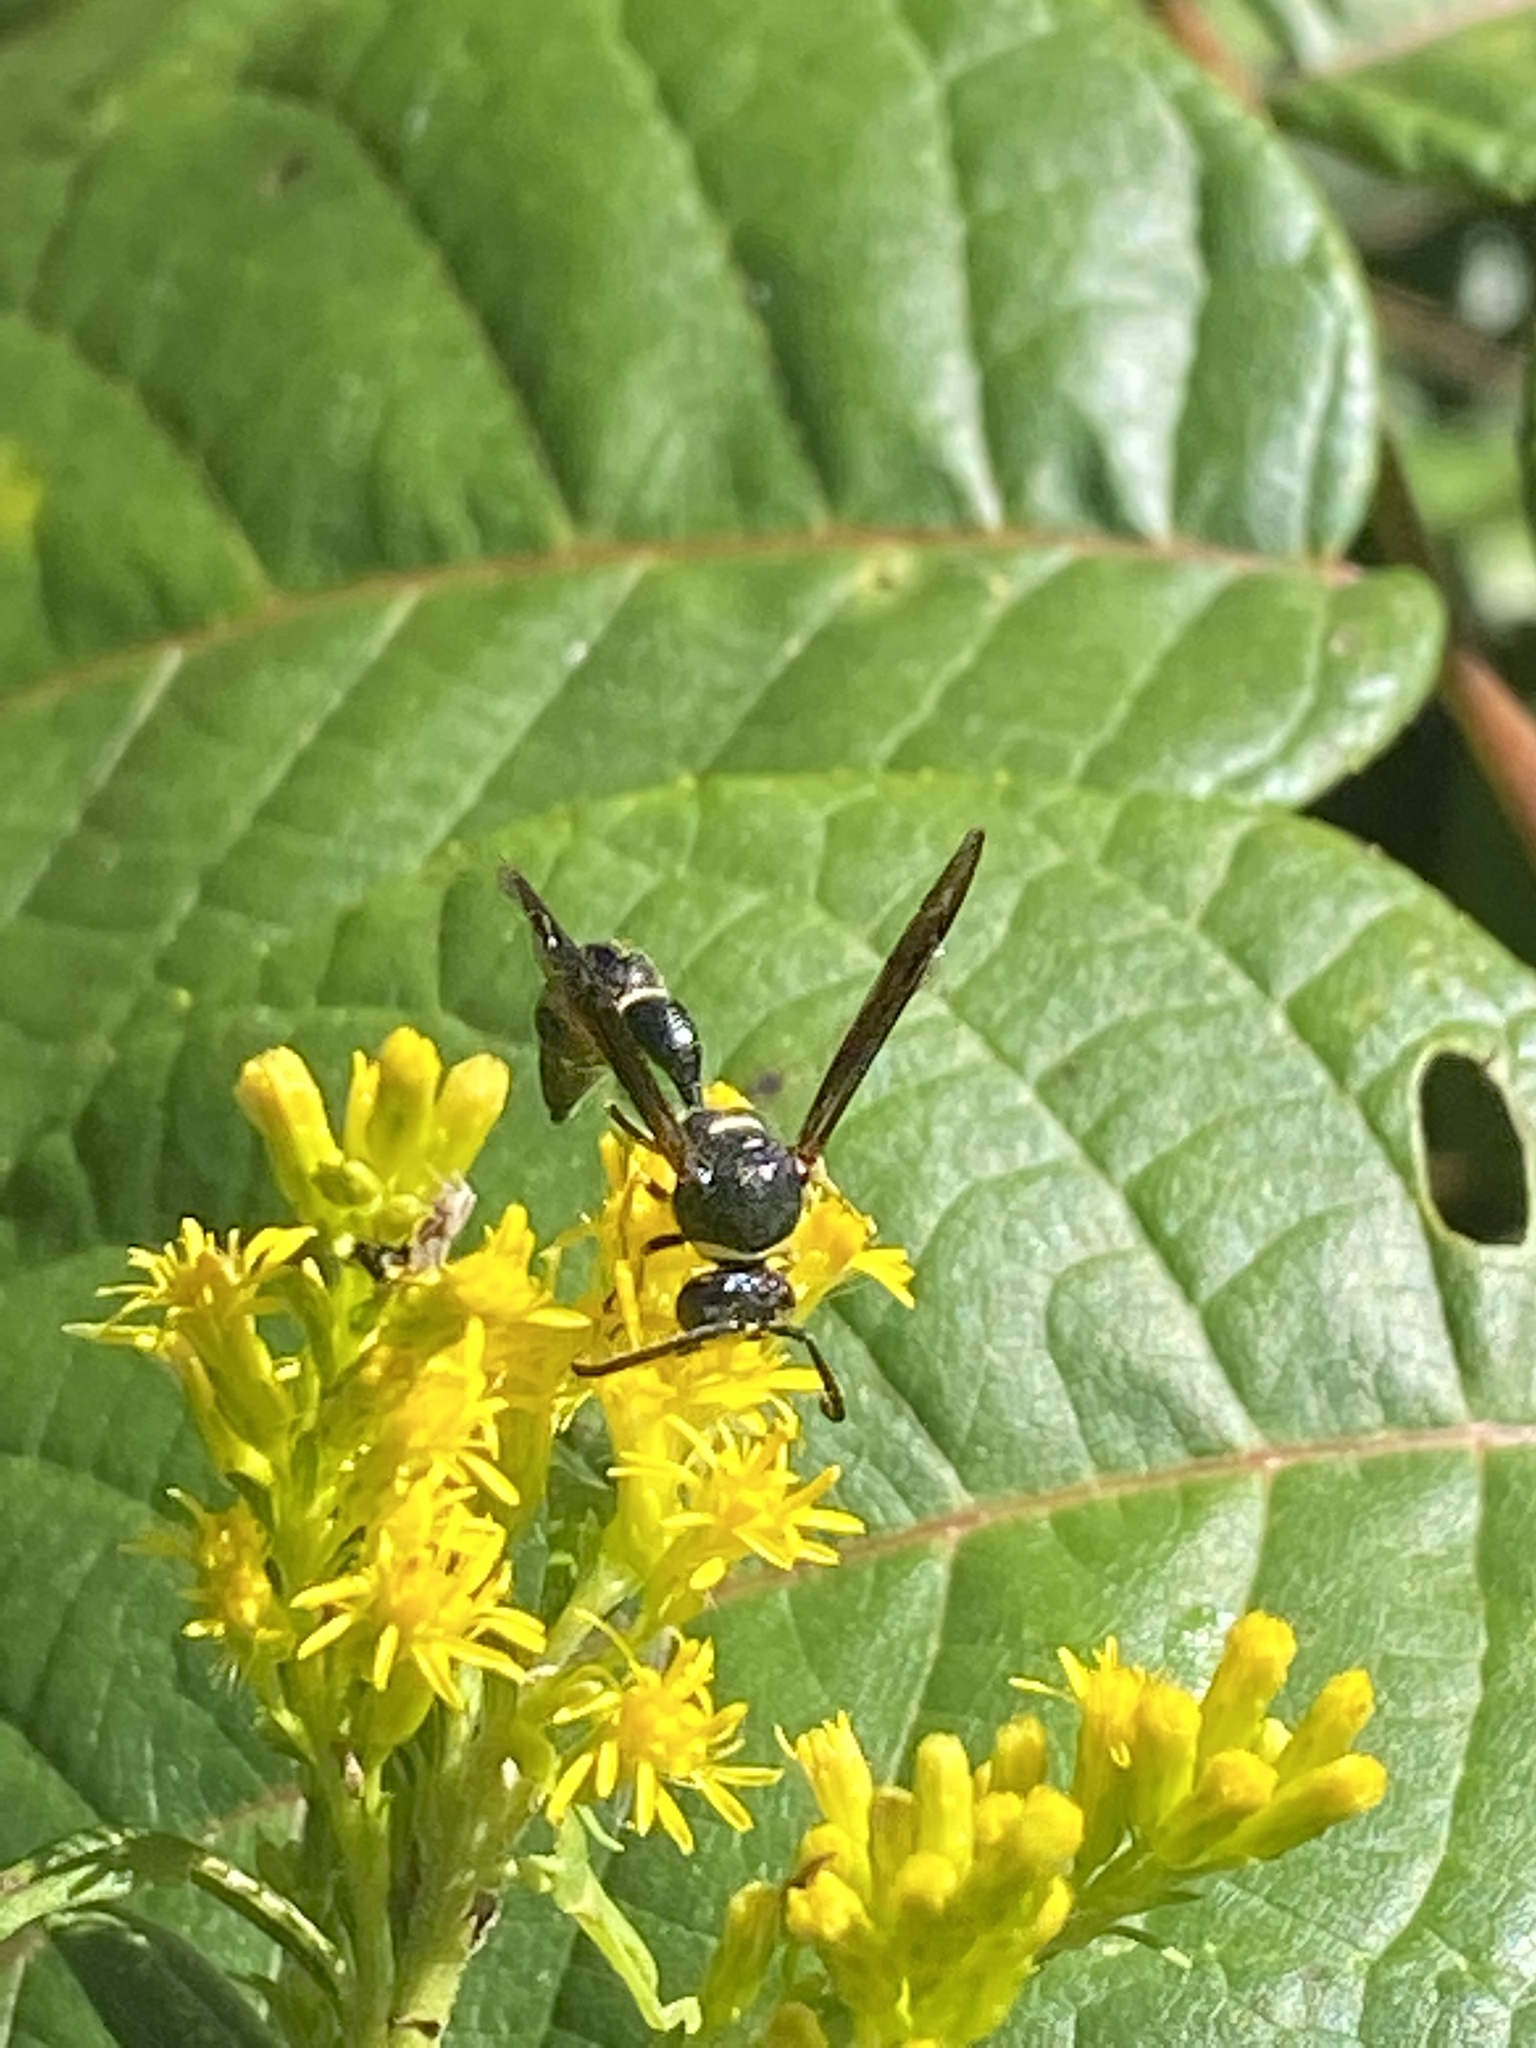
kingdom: Animalia
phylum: Arthropoda
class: Insecta
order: Hymenoptera
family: Vespidae
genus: Eumenes
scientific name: Eumenes fraternus
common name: Fraternal potter wasp
